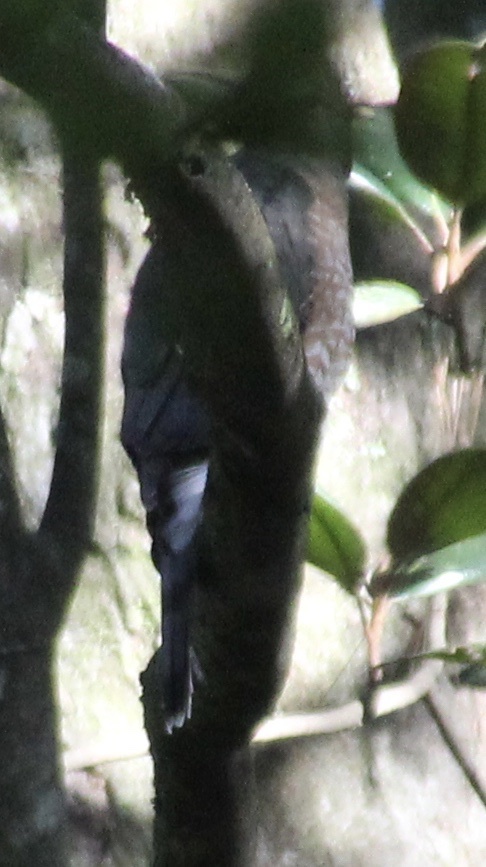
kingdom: Animalia
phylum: Chordata
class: Aves
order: Accipitriformes
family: Accipitridae
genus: Accipiter
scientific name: Accipiter cooperii
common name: Cooper's hawk
